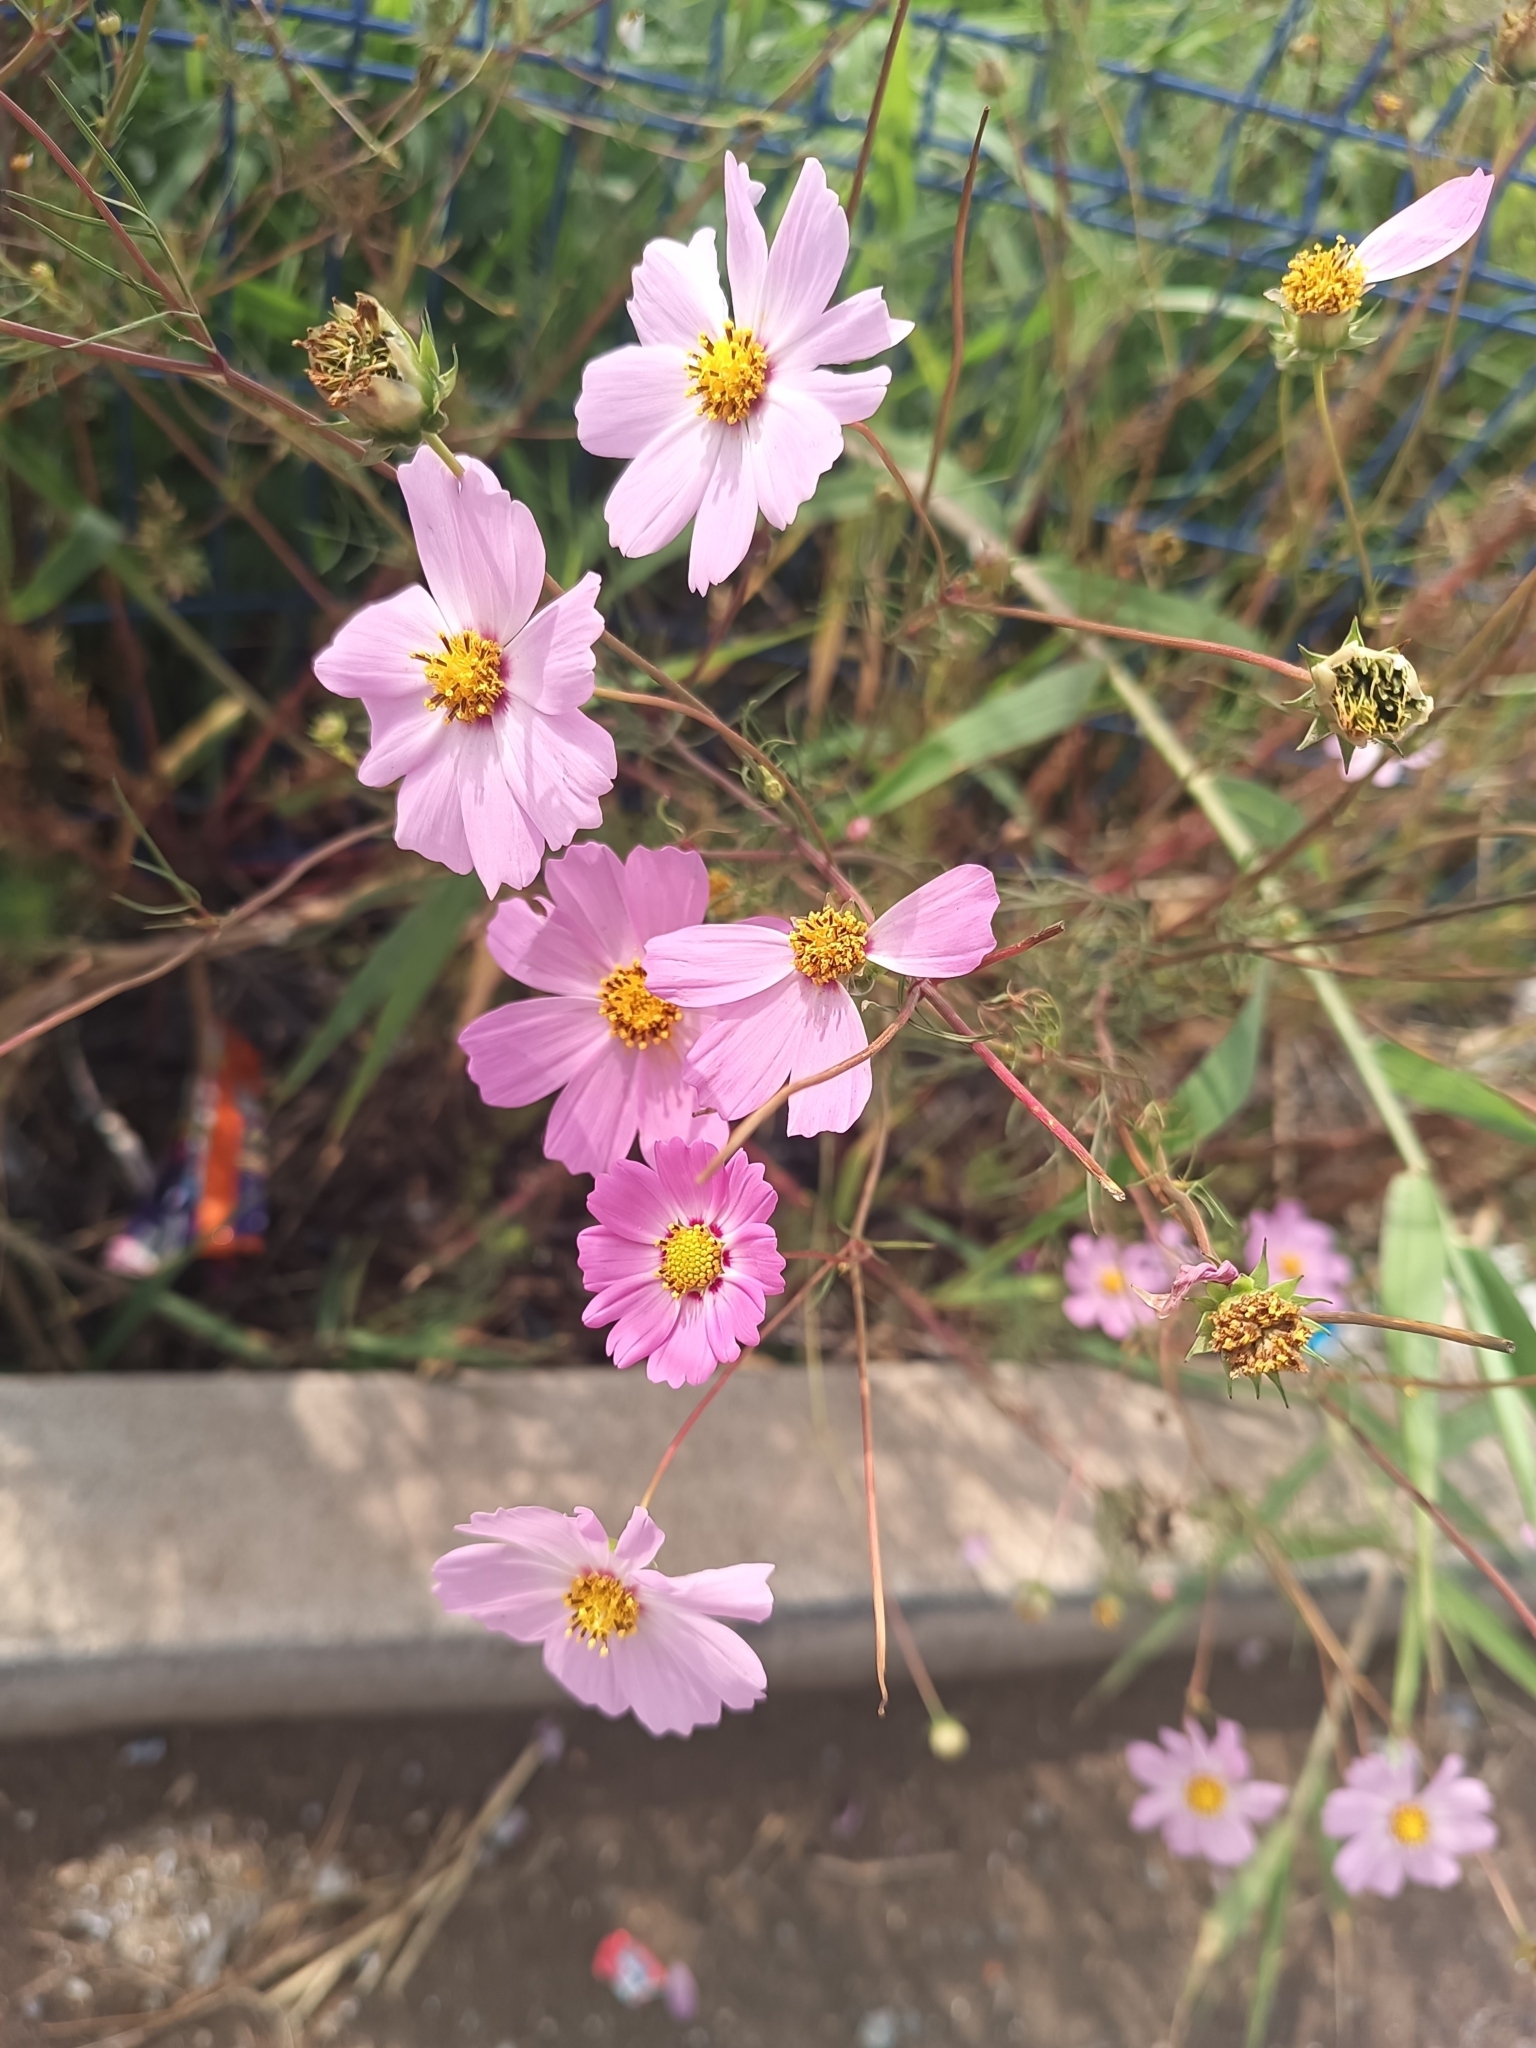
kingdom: Plantae
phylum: Tracheophyta
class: Magnoliopsida
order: Asterales
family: Asteraceae
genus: Cosmos
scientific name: Cosmos bipinnatus
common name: Garden cosmos
